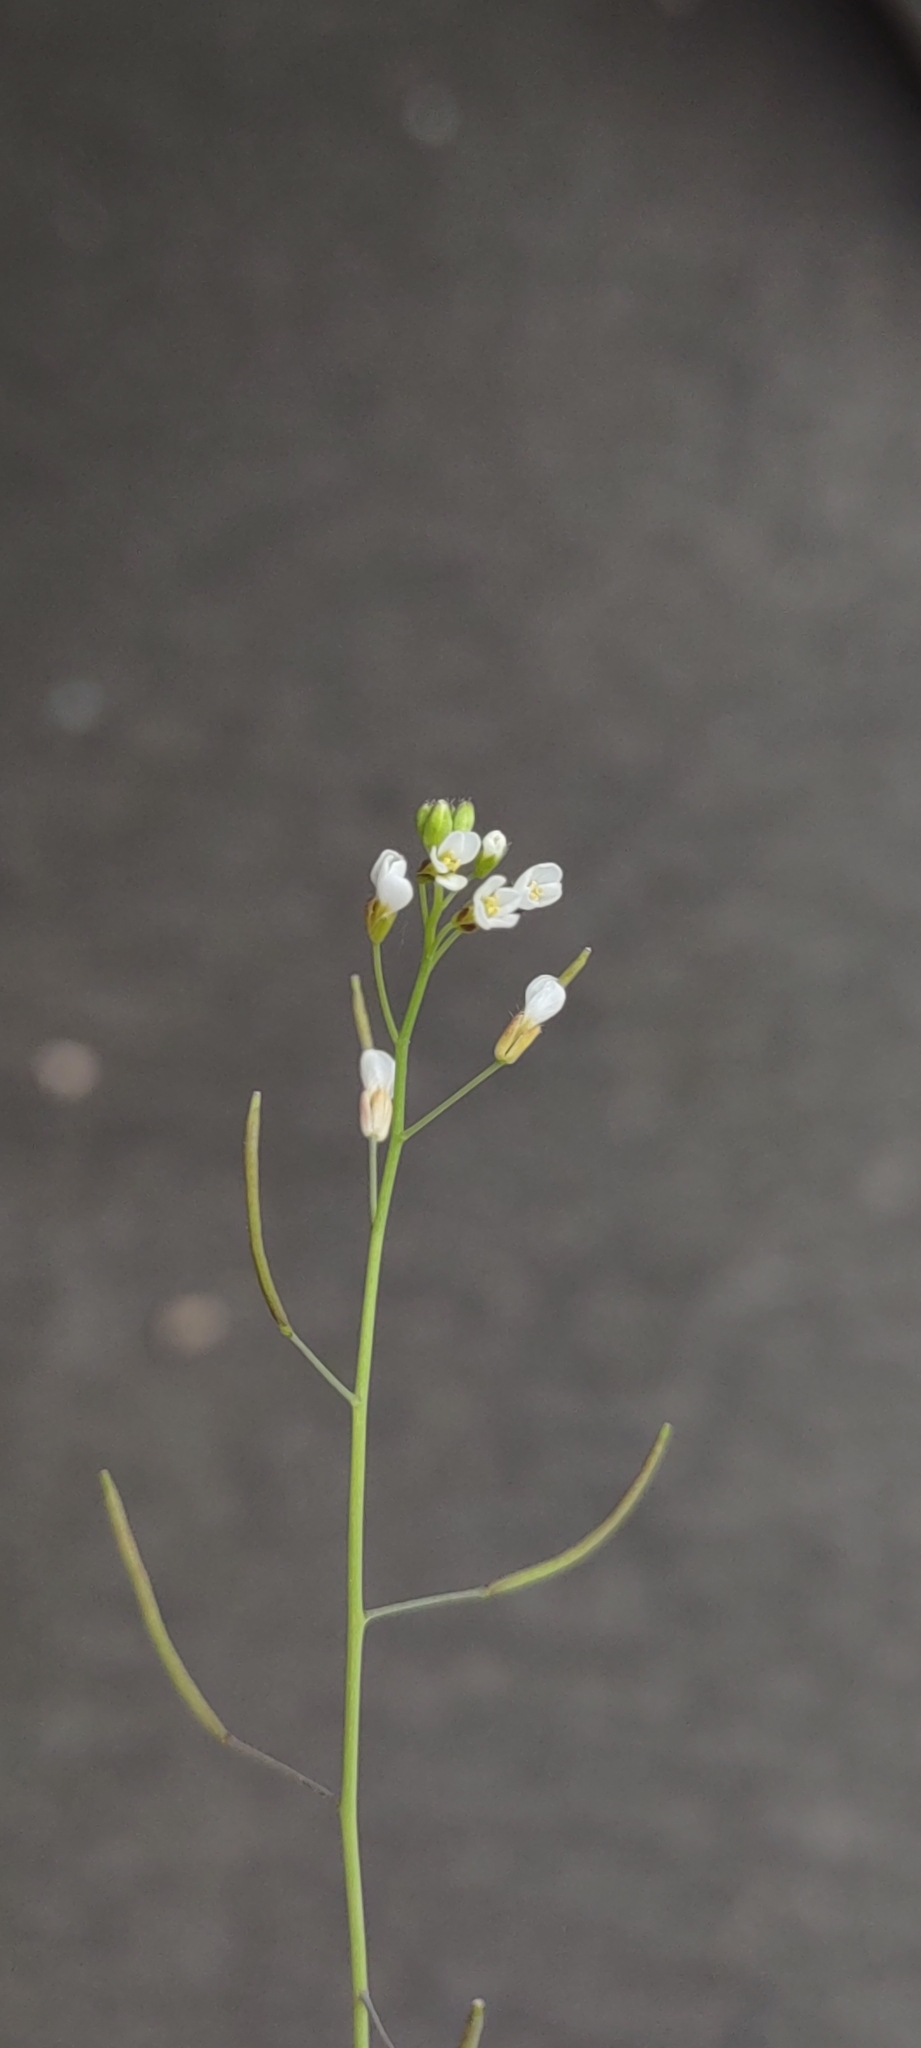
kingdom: Plantae
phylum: Tracheophyta
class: Magnoliopsida
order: Brassicales
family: Brassicaceae
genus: Arabidopsis
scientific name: Arabidopsis thaliana
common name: Thale cress
